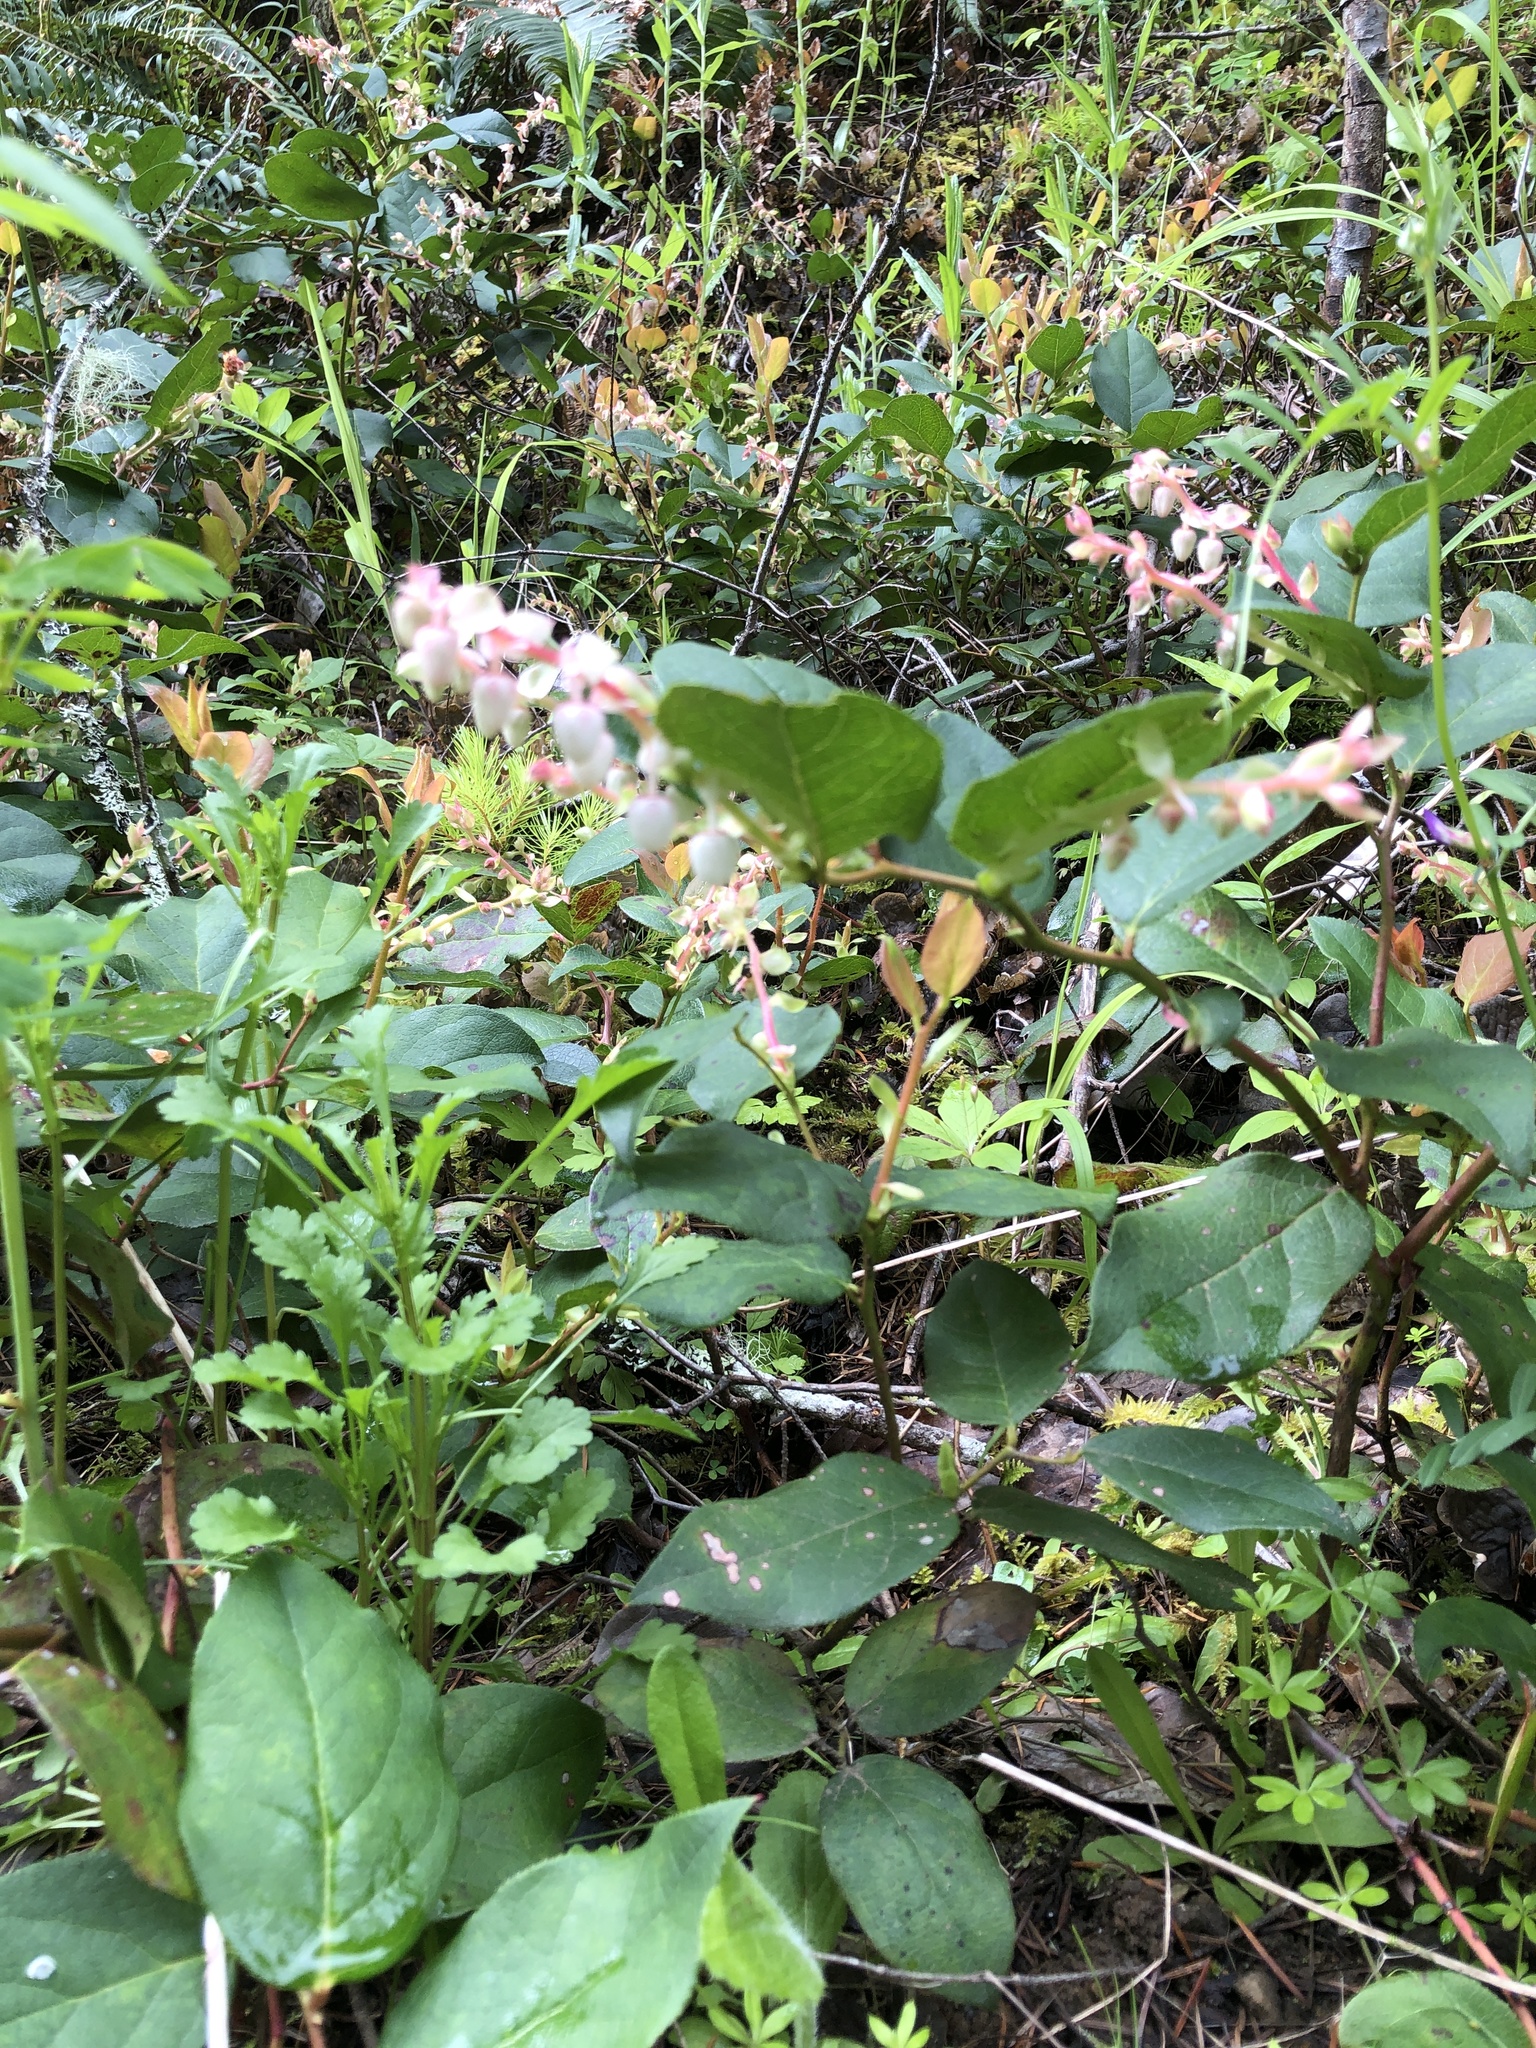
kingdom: Plantae
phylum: Tracheophyta
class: Magnoliopsida
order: Ericales
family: Ericaceae
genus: Gaultheria
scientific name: Gaultheria shallon
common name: Shallon
